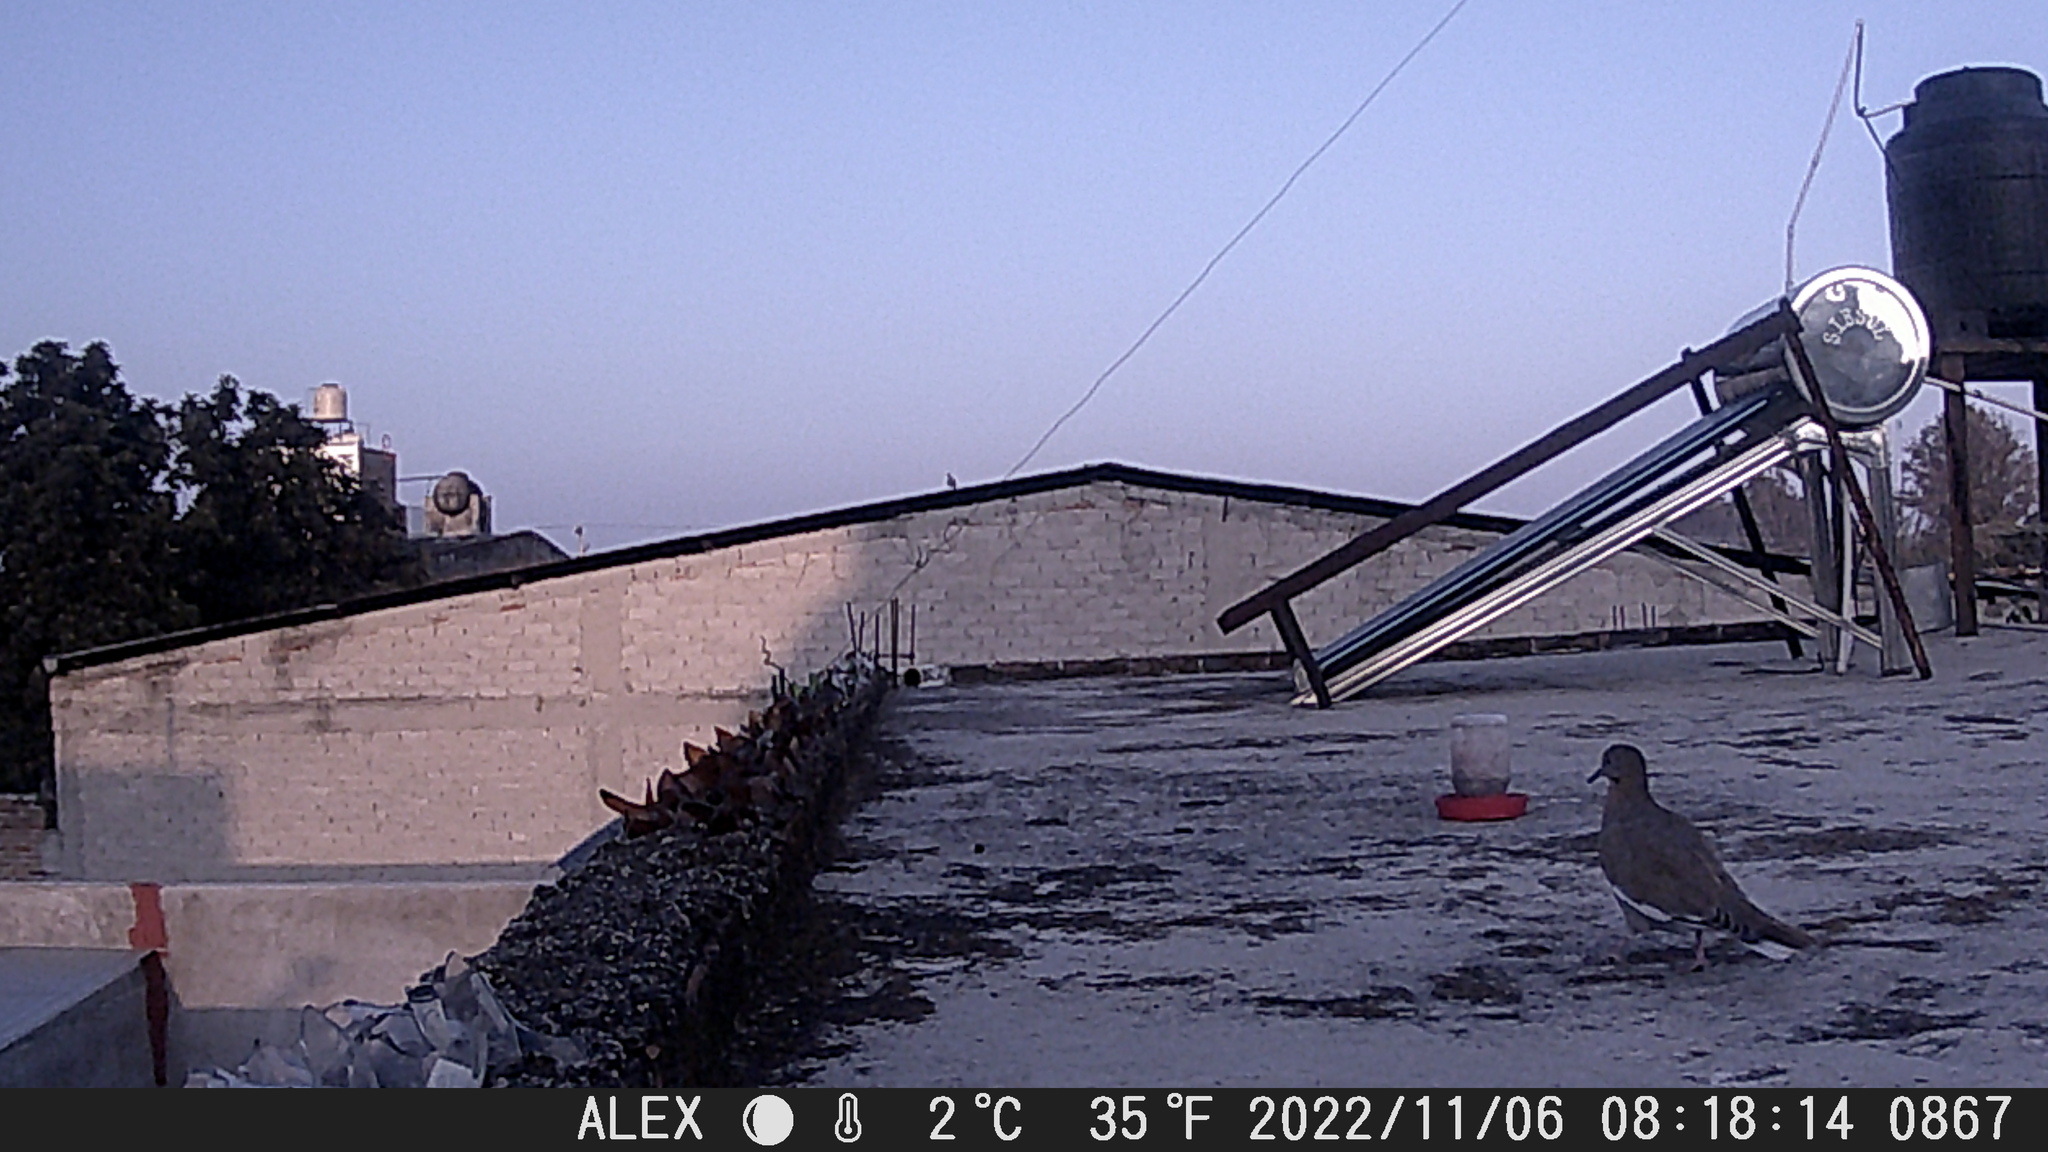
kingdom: Animalia
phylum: Chordata
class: Aves
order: Columbiformes
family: Columbidae
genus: Zenaida
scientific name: Zenaida asiatica
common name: White-winged dove
